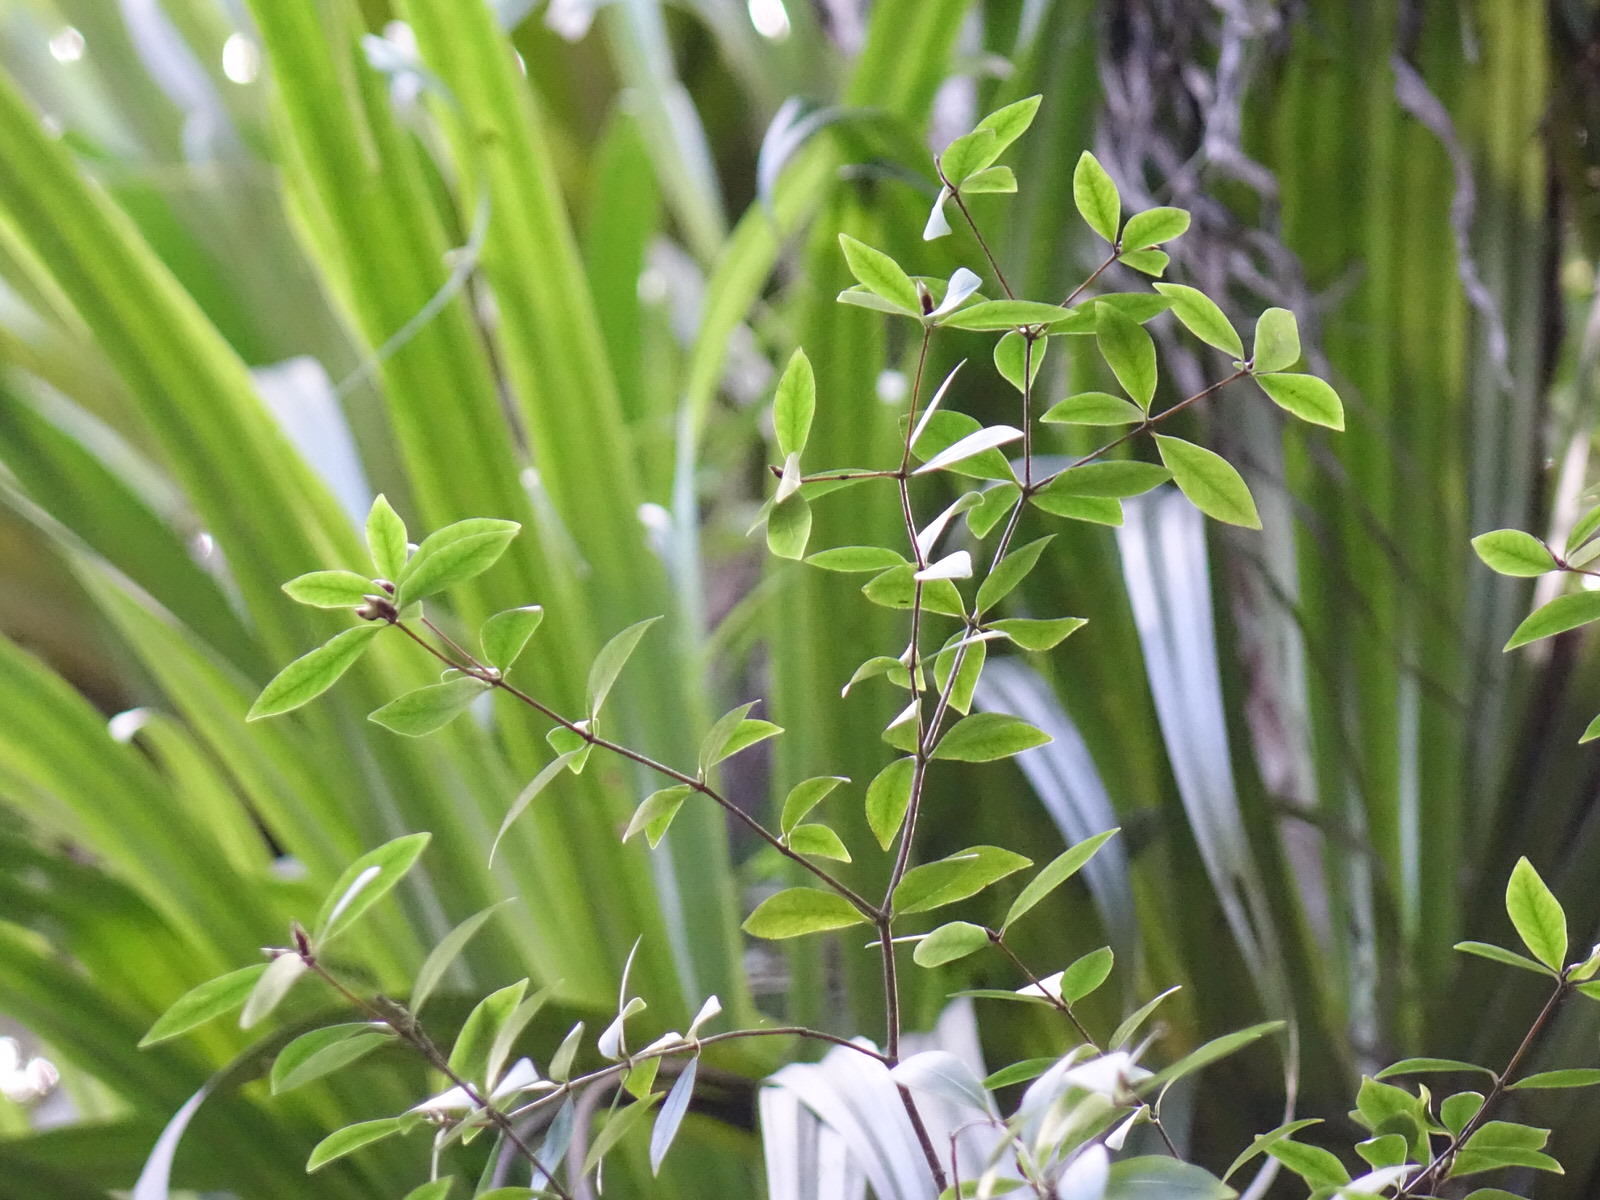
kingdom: Plantae
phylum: Tracheophyta
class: Magnoliopsida
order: Apiales
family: Pittosporaceae
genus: Pittosporum
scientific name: Pittosporum cornifolium
